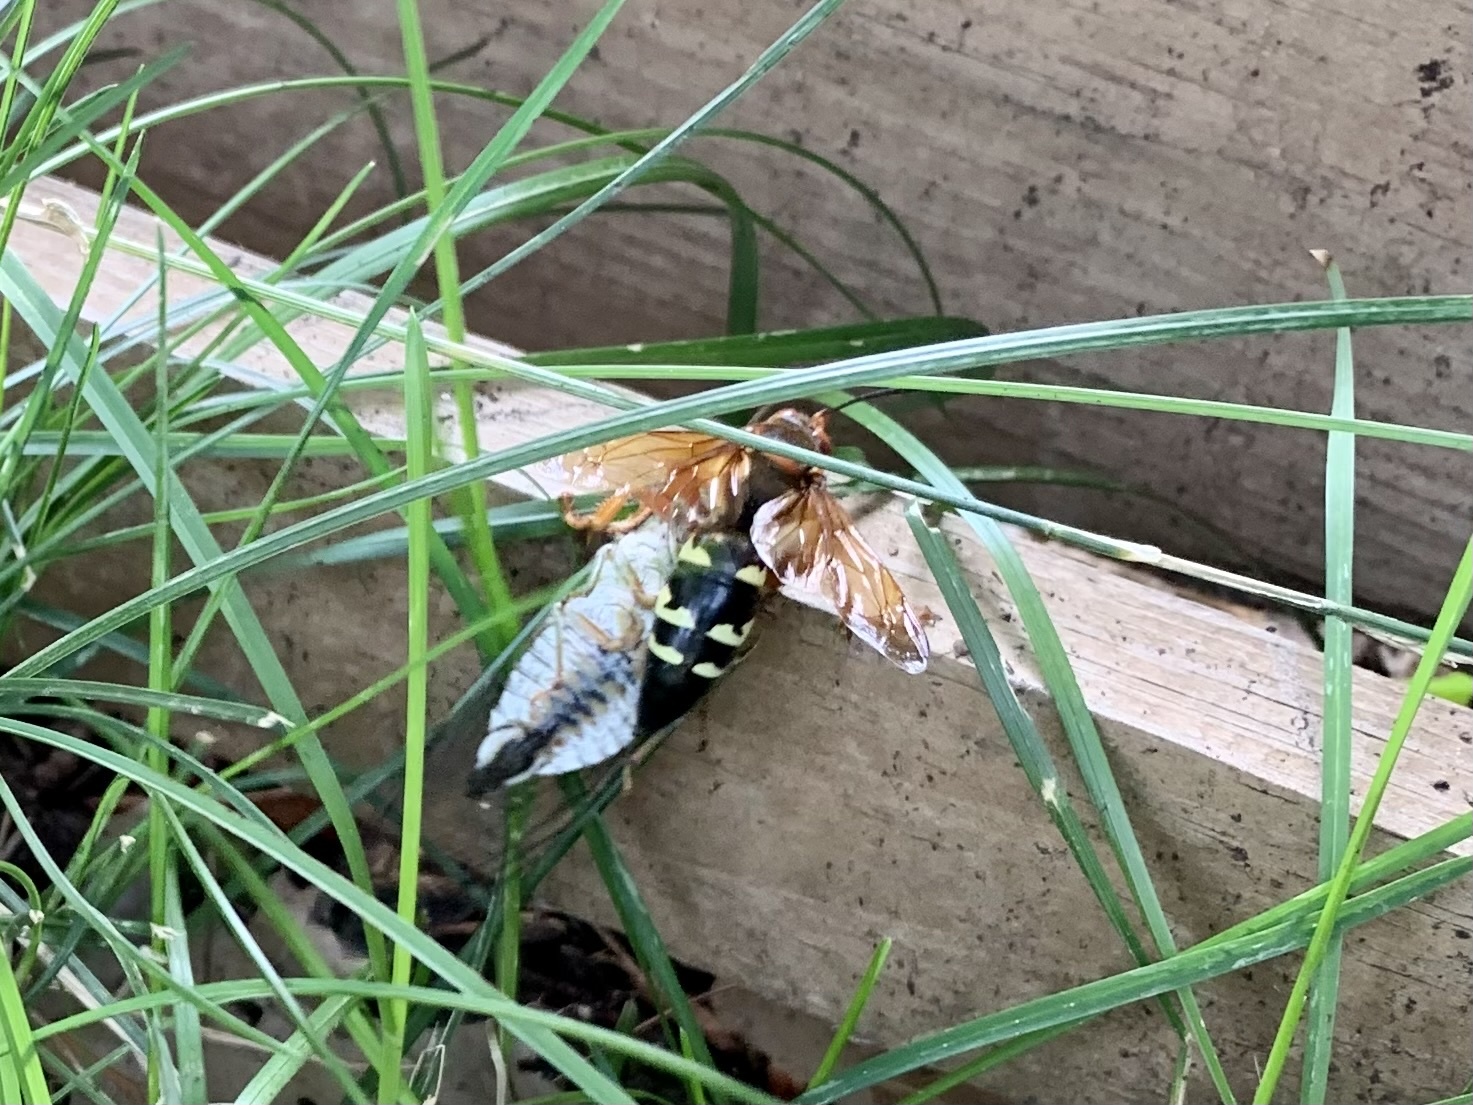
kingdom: Animalia
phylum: Arthropoda
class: Insecta
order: Hymenoptera
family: Crabronidae
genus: Sphecius
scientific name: Sphecius speciosus
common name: Cicada killer
